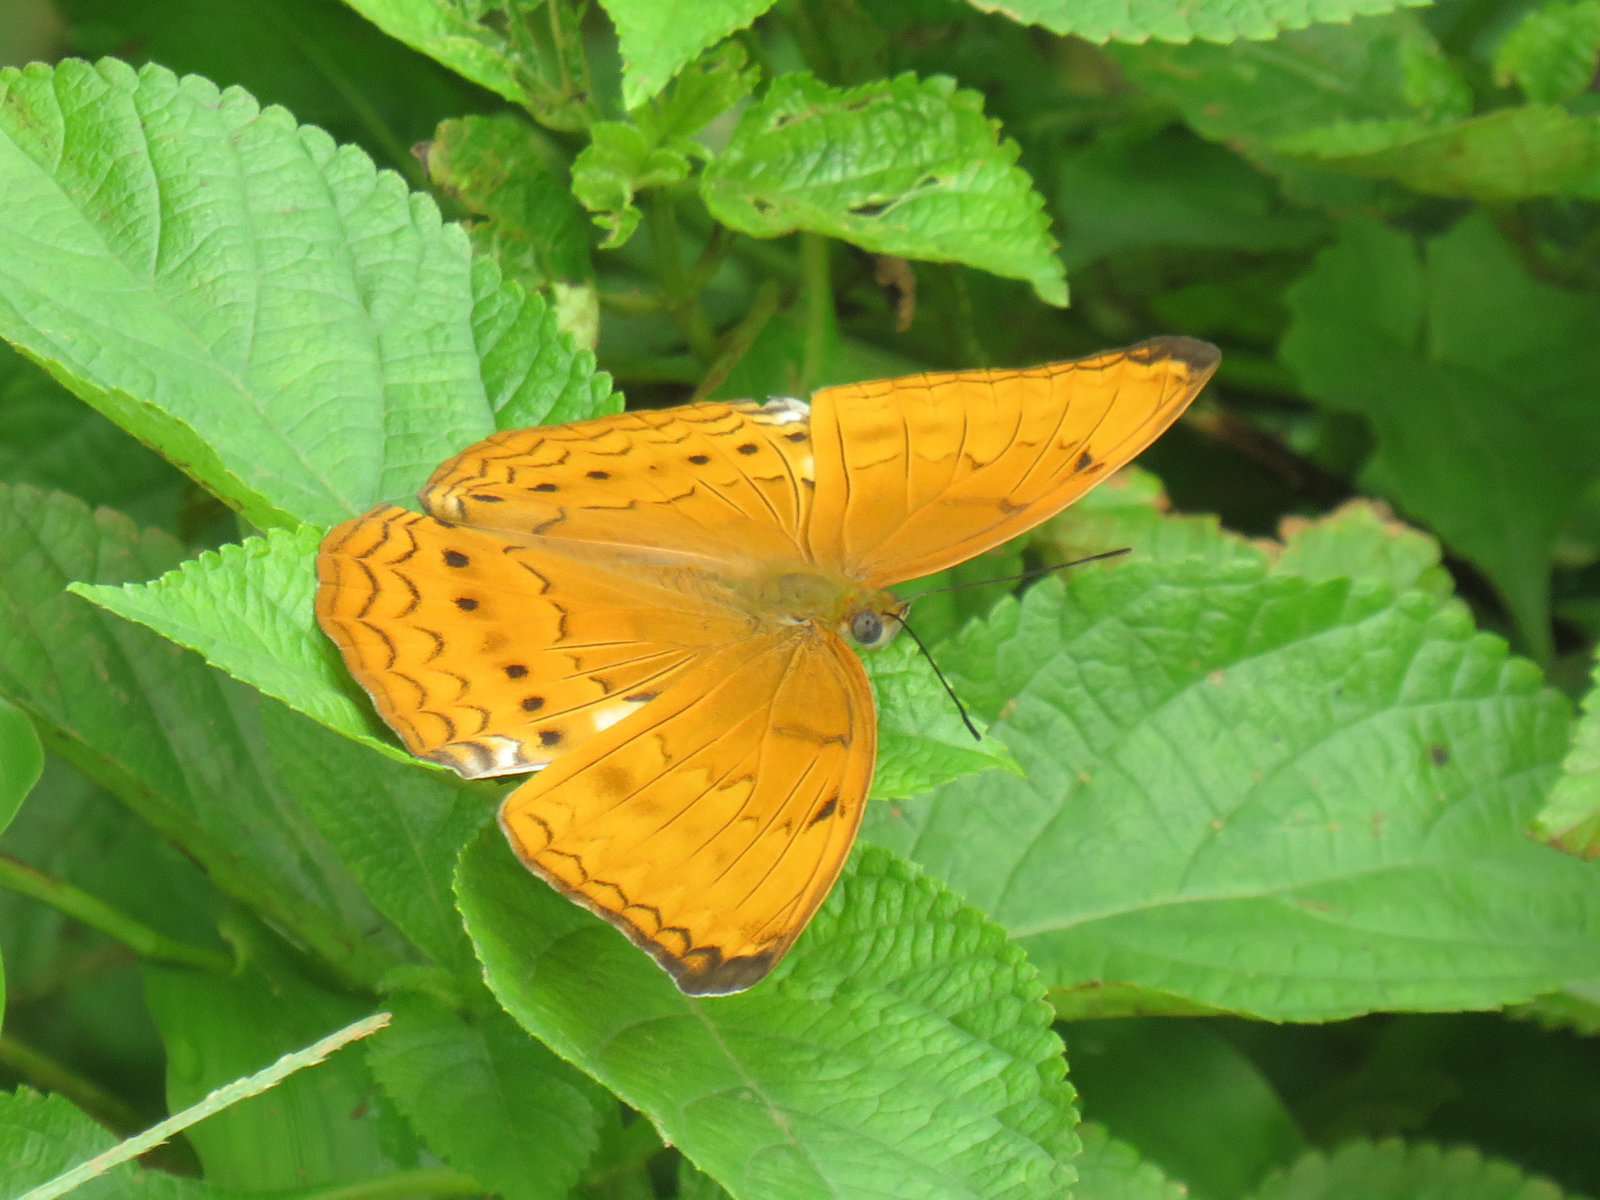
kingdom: Animalia
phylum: Arthropoda
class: Insecta
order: Lepidoptera
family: Nymphalidae
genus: Cirrochroa
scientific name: Cirrochroa aoris
